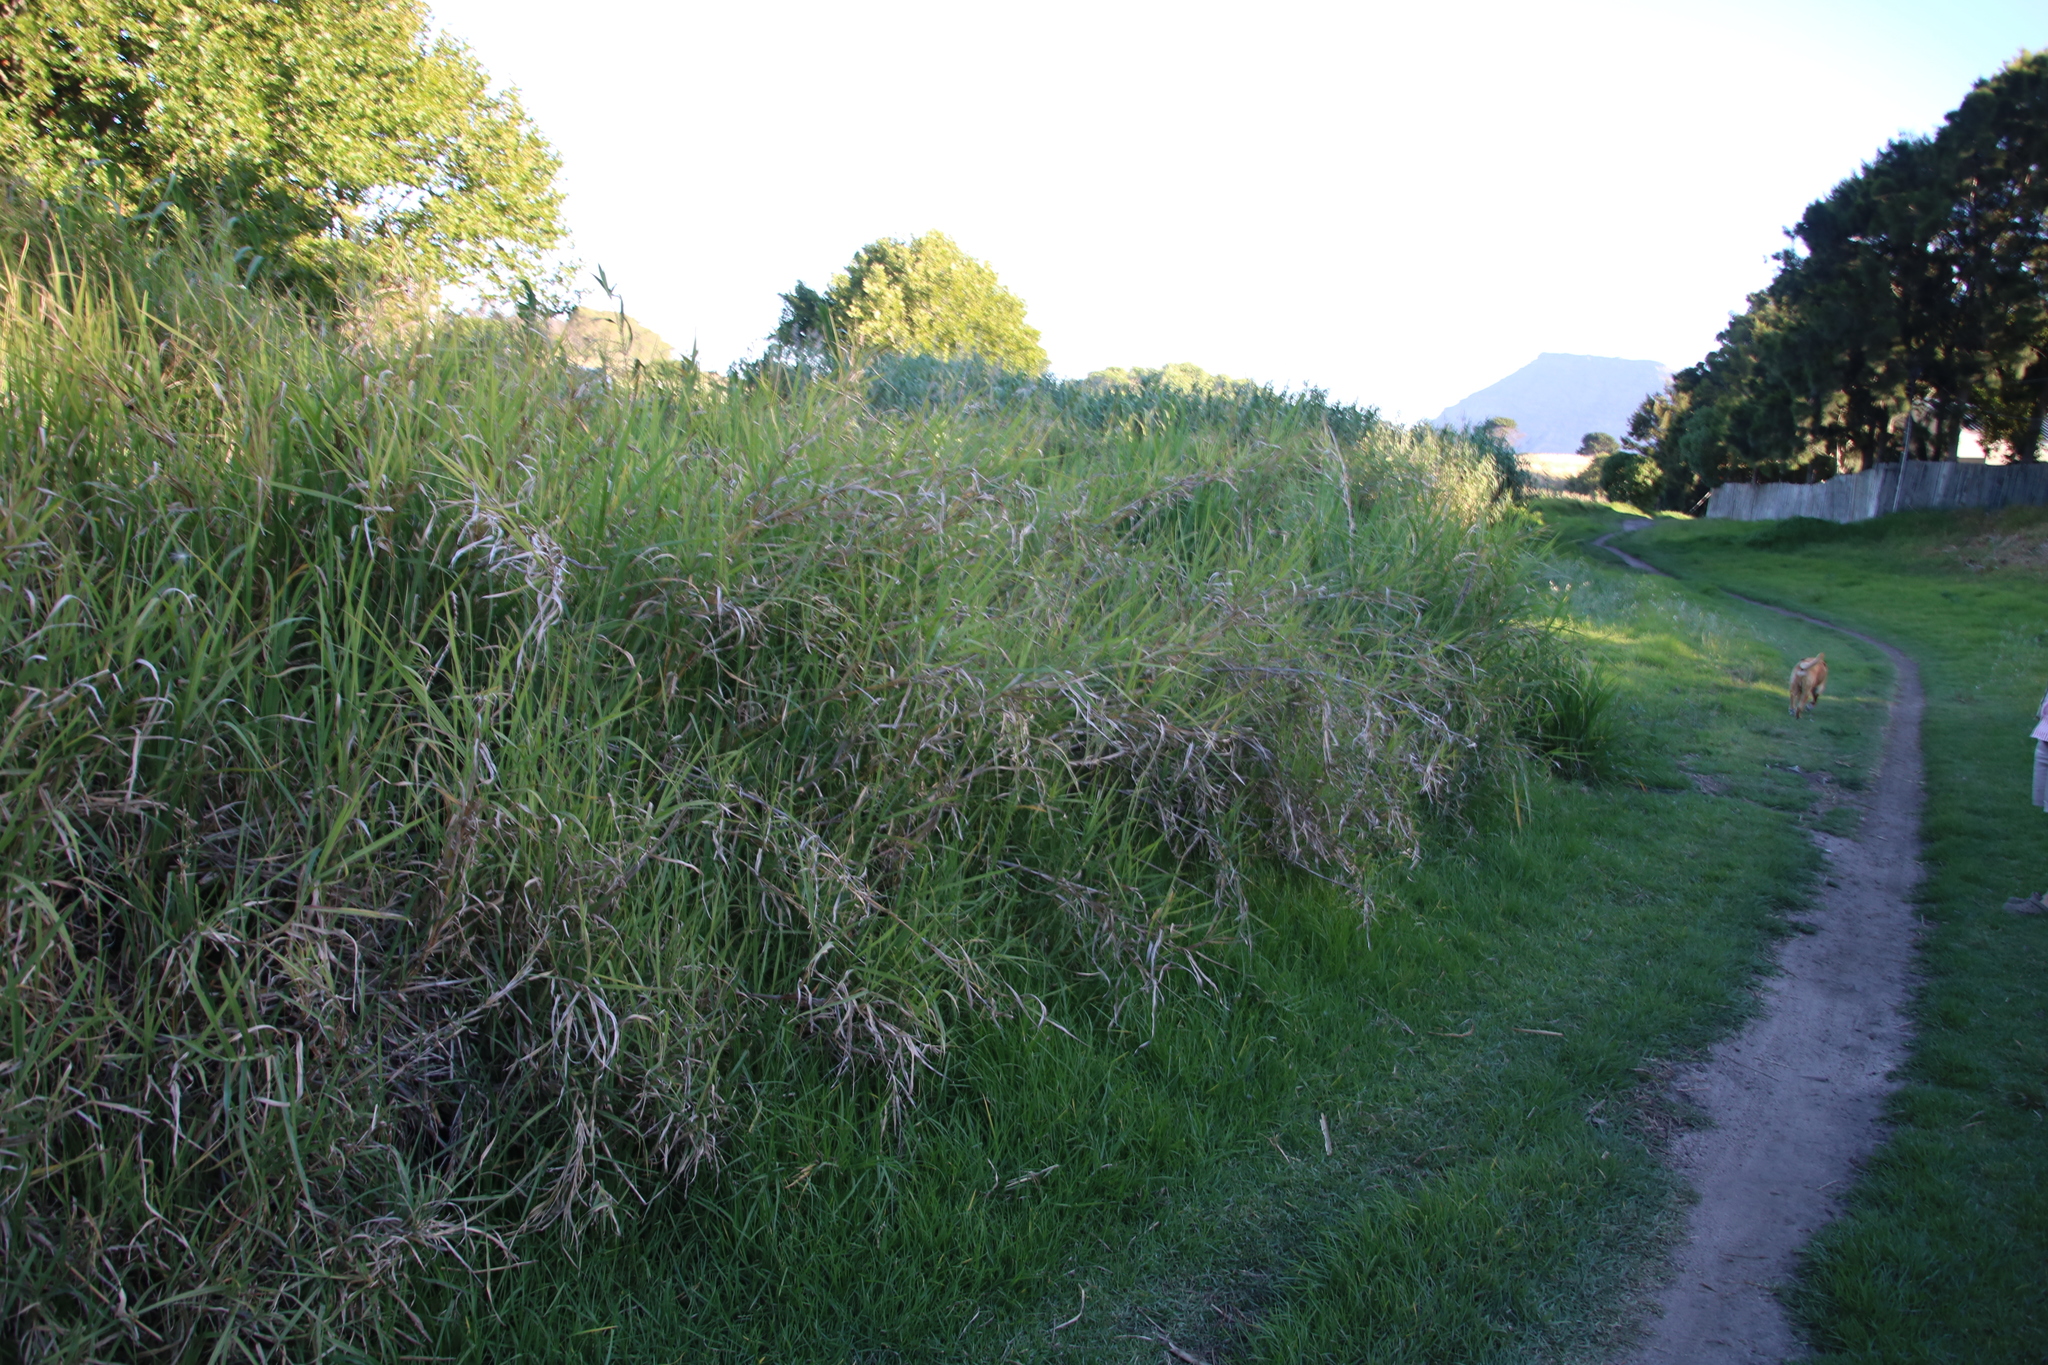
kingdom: Plantae
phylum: Tracheophyta
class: Liliopsida
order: Poales
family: Poaceae
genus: Echinochloa
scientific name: Echinochloa pyramidalis
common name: Antelope grass
